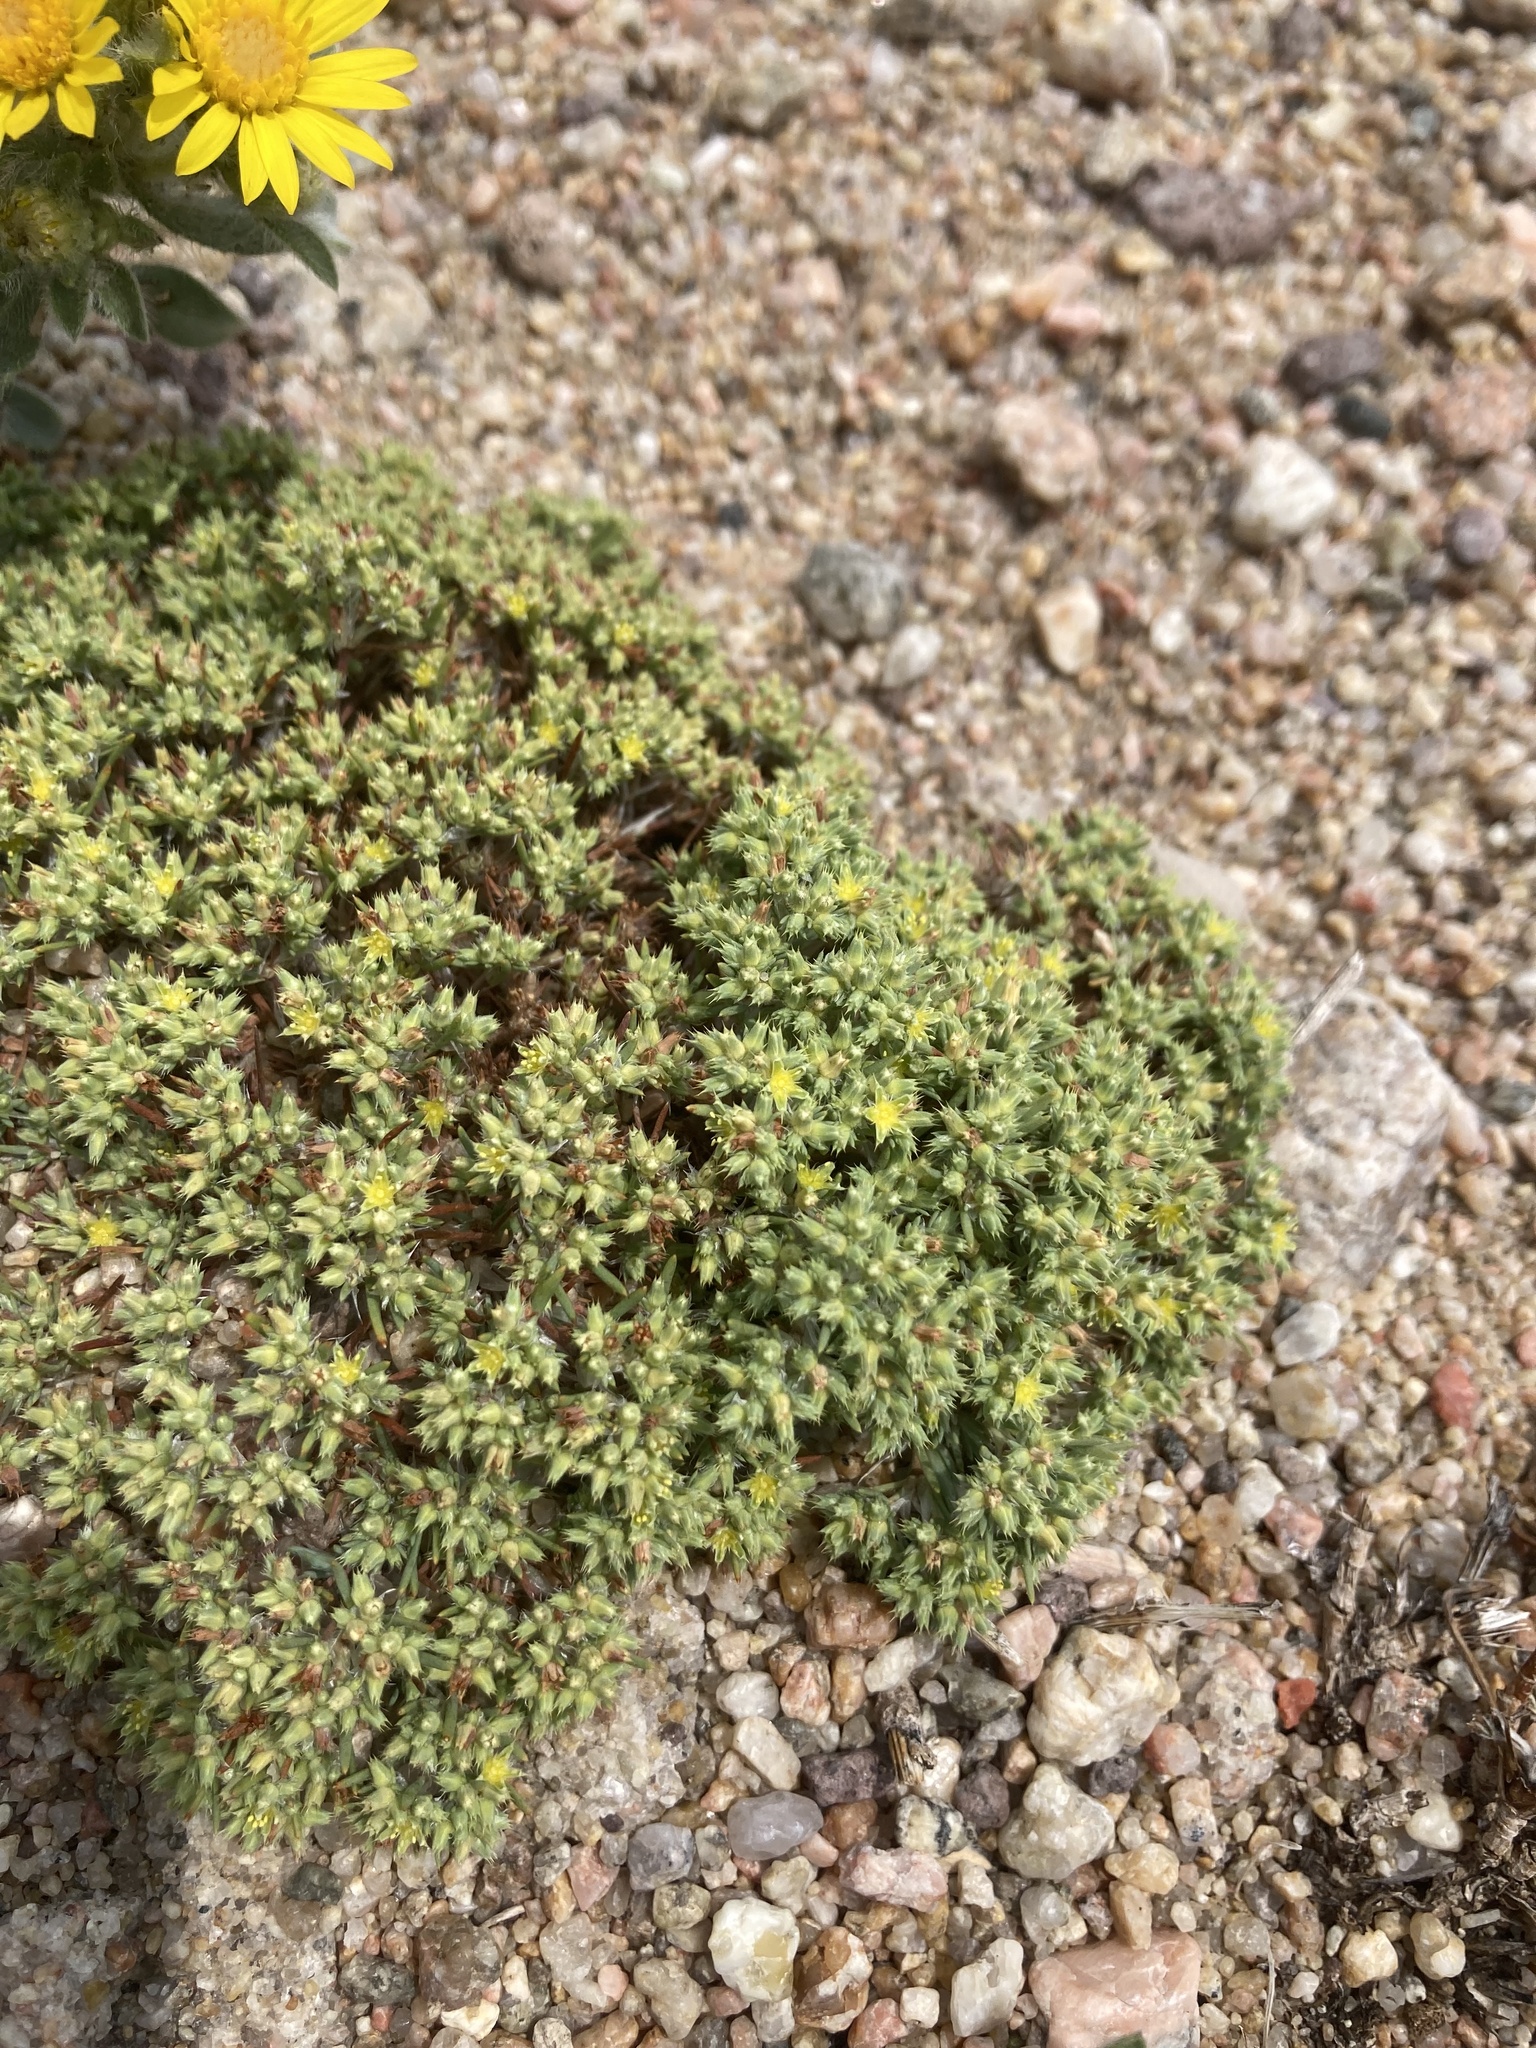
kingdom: Plantae
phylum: Tracheophyta
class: Magnoliopsida
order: Caryophyllales
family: Caryophyllaceae
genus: Paronychia
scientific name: Paronychia depressa
